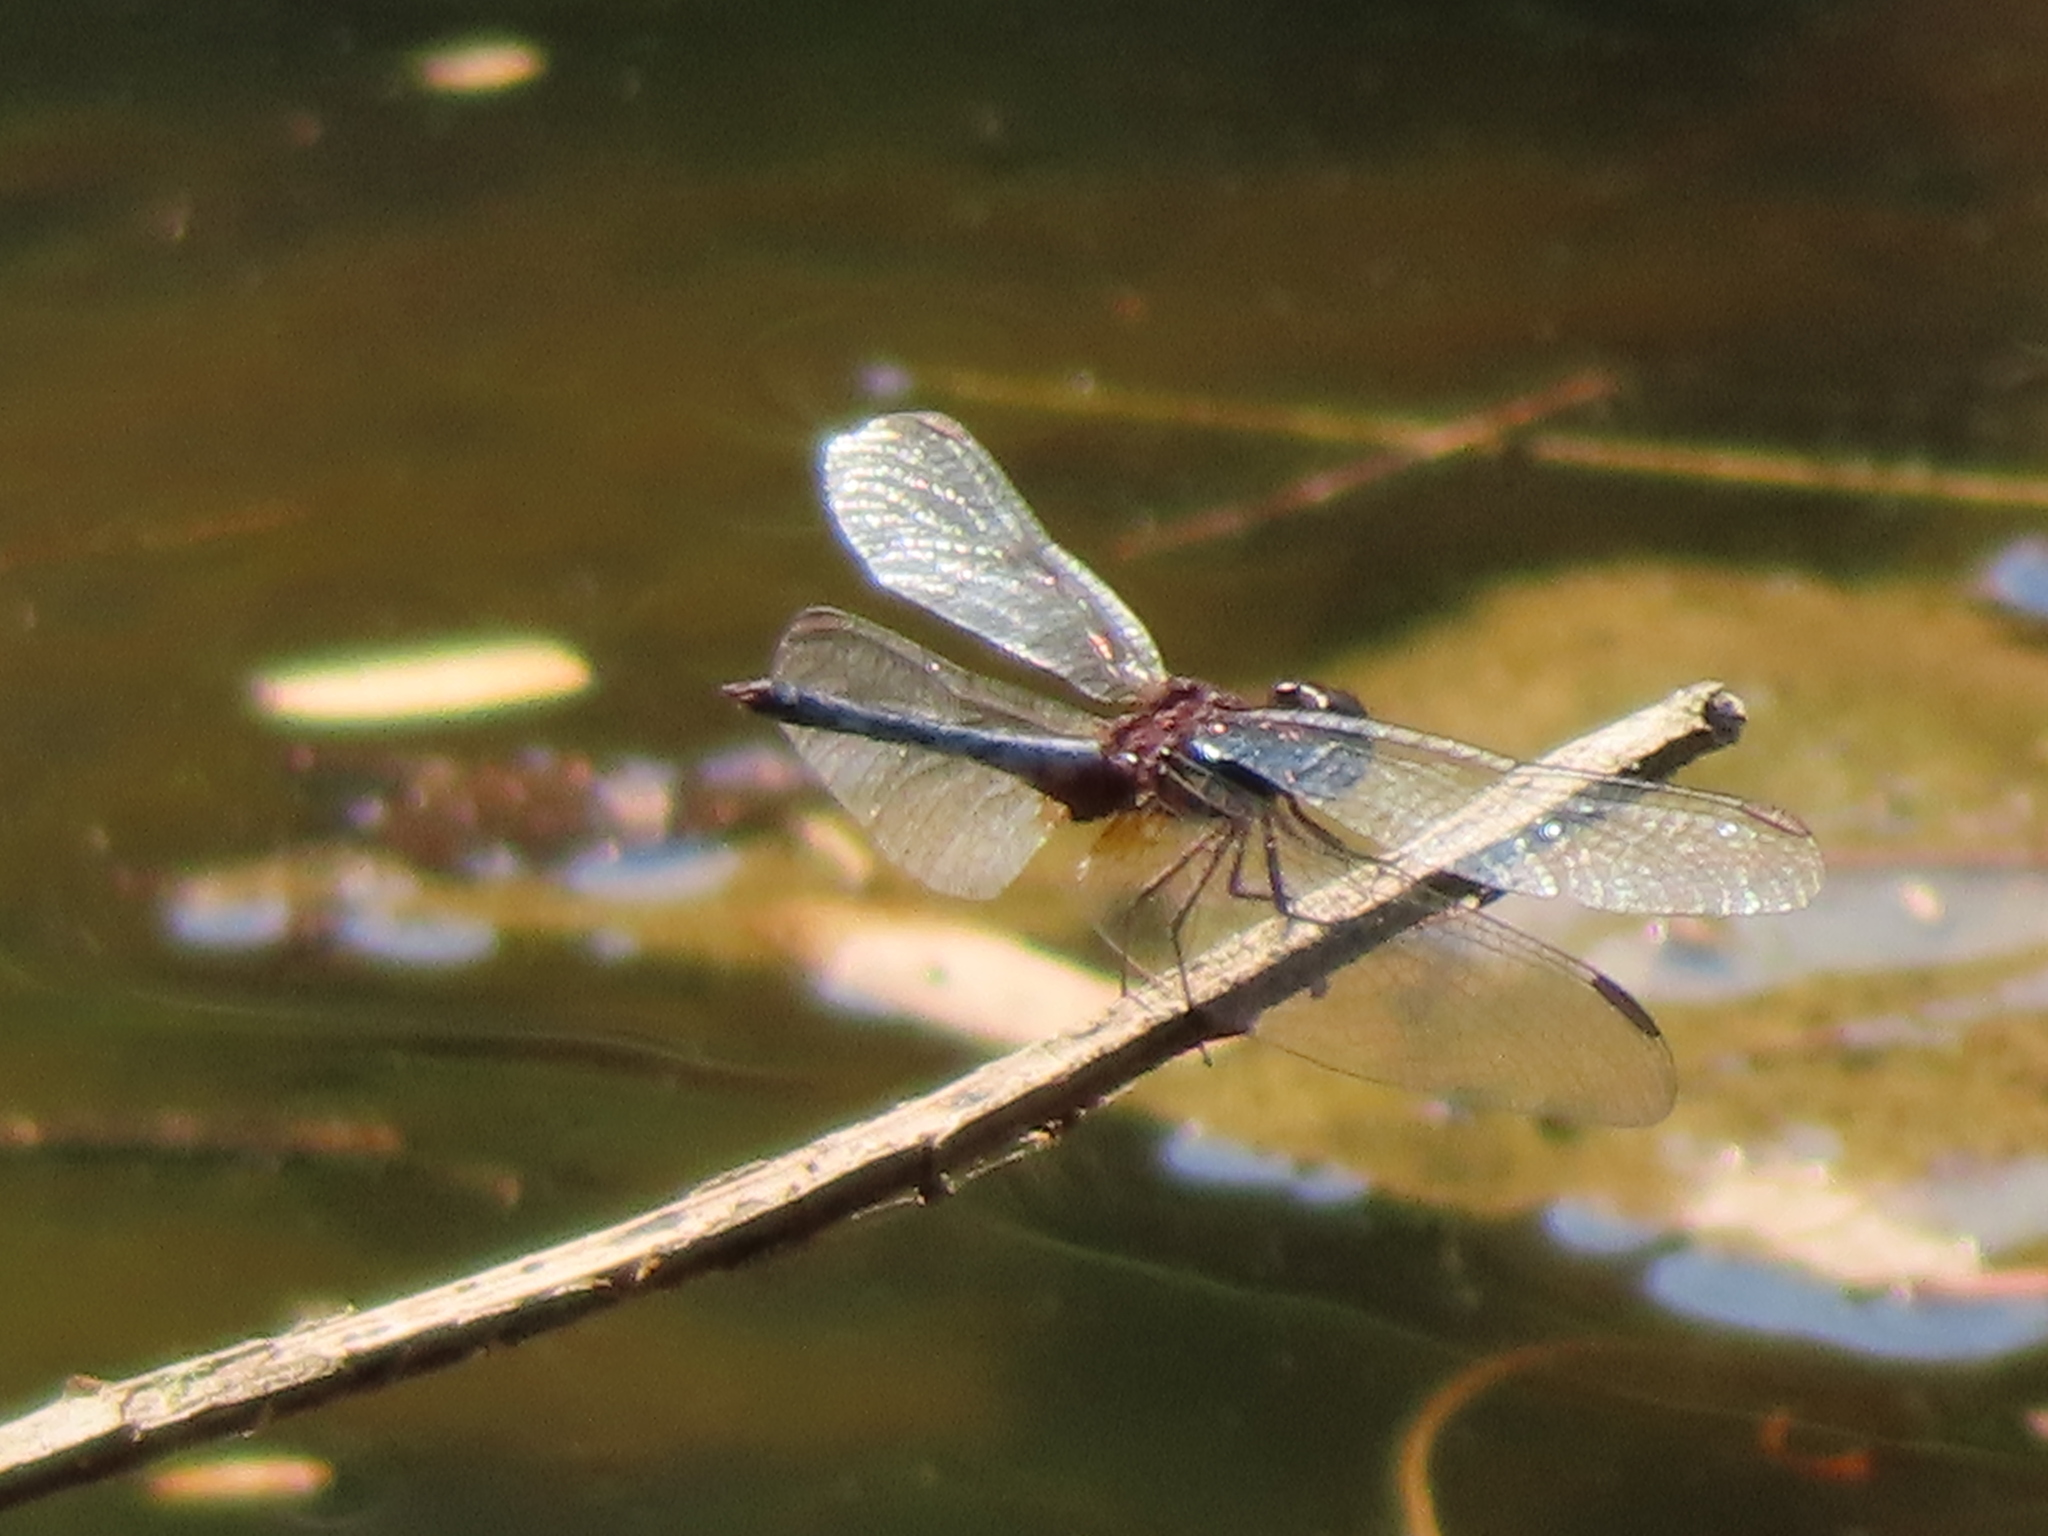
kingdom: Animalia
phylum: Arthropoda
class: Insecta
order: Odonata
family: Libellulidae
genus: Erythrodiplax
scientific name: Erythrodiplax fusca
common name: Red-faced dragonlet
